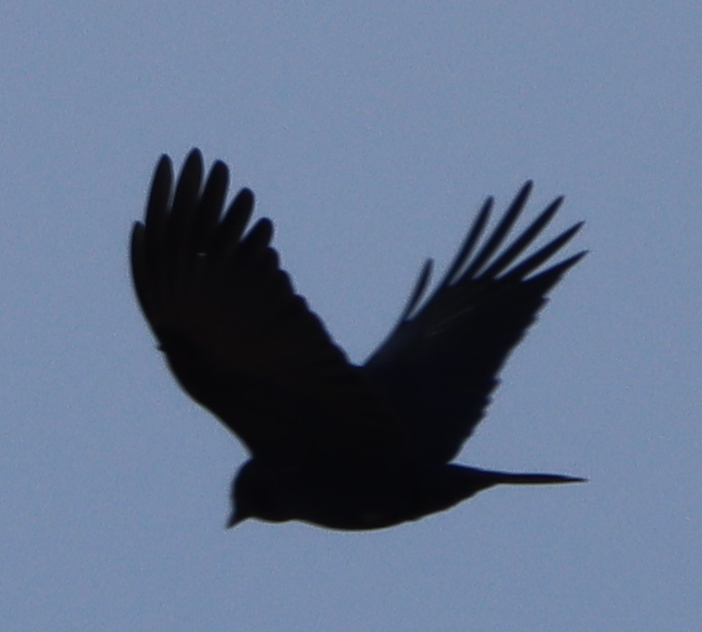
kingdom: Animalia
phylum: Chordata
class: Aves
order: Passeriformes
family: Corvidae
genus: Corvus
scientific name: Corvus brachyrhynchos
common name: American crow
